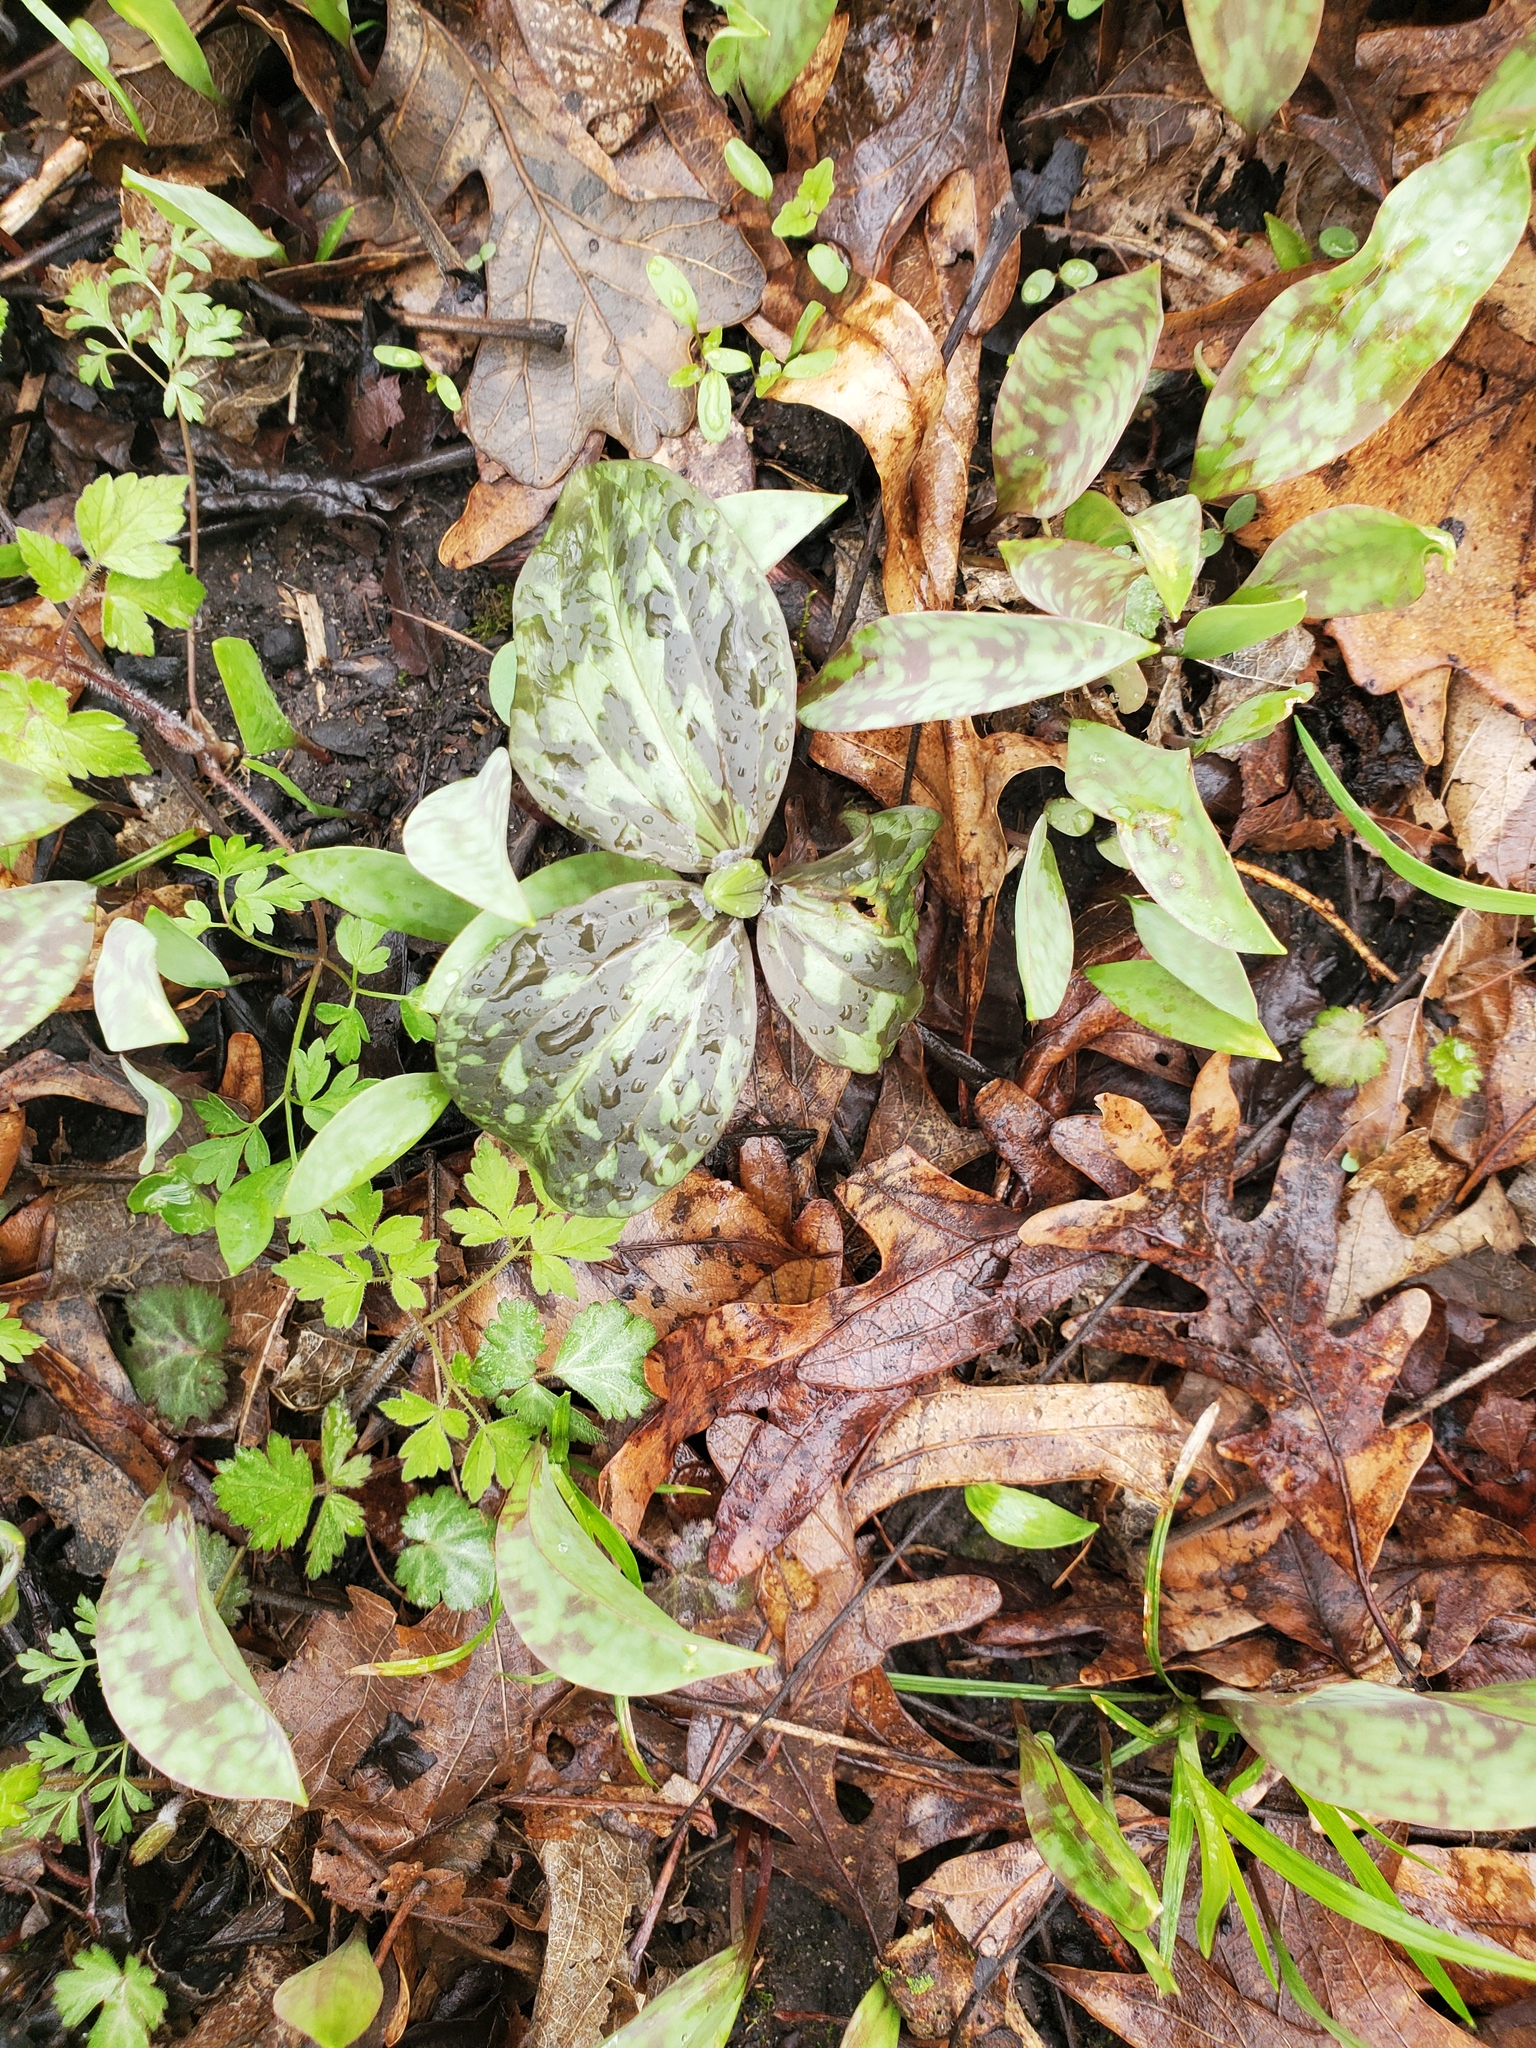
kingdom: Plantae
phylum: Tracheophyta
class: Liliopsida
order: Liliales
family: Melanthiaceae
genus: Trillium
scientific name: Trillium recurvatum
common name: Bloody butcher
